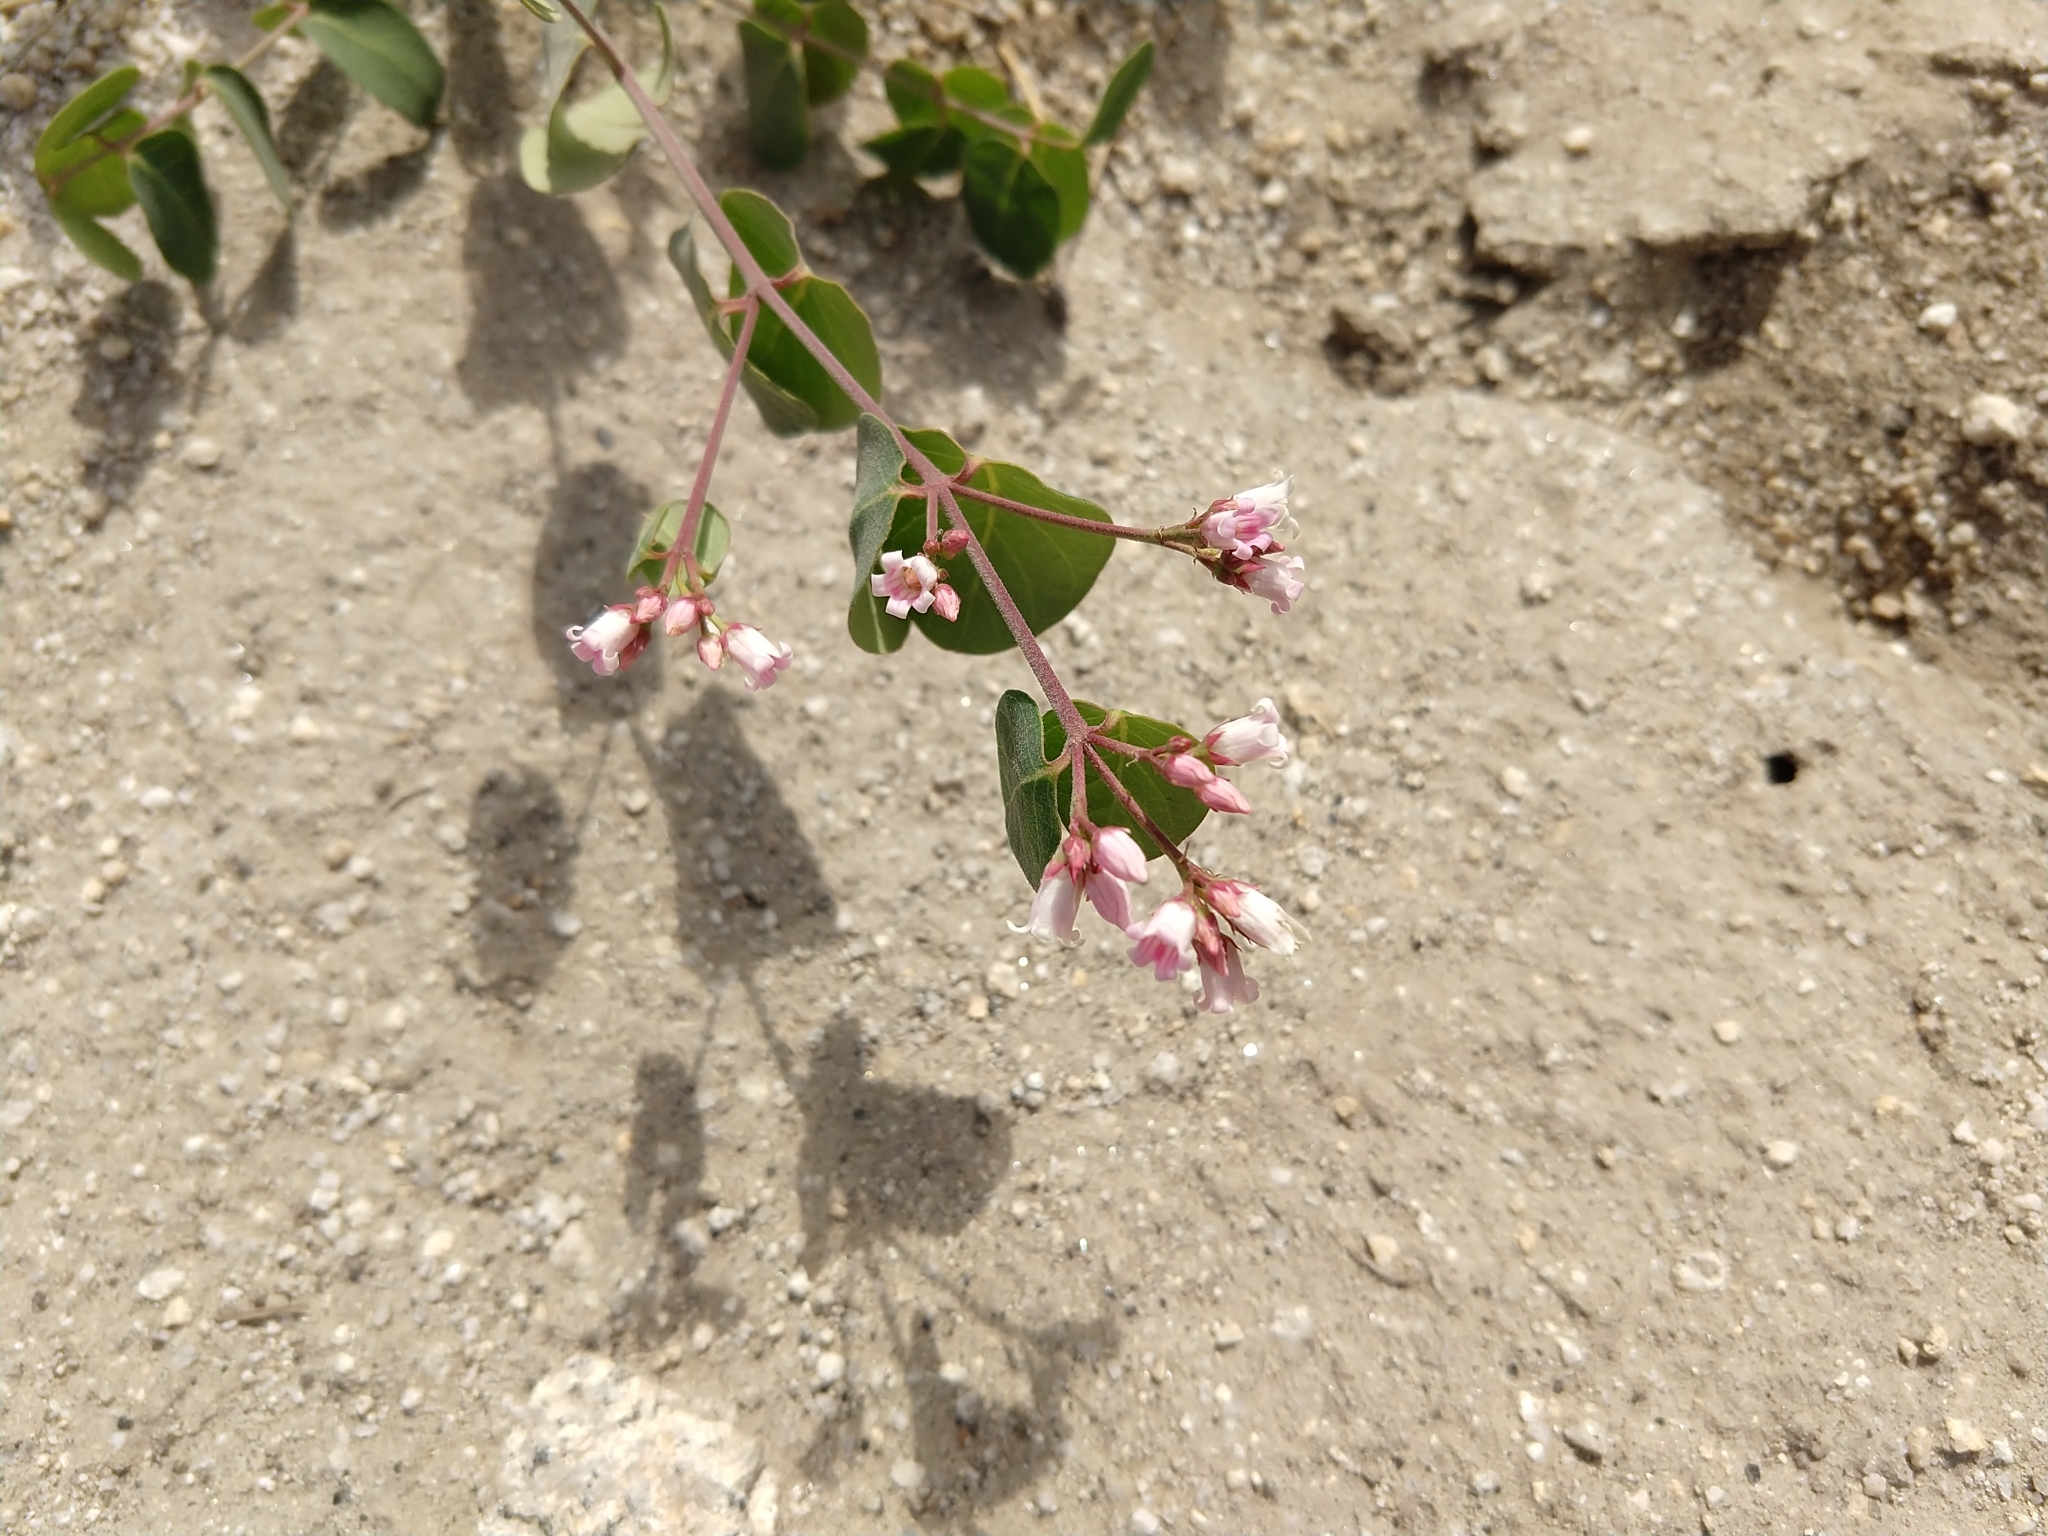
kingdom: Plantae
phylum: Tracheophyta
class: Magnoliopsida
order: Gentianales
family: Apocynaceae
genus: Apocynum
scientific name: Apocynum androsaemifolium
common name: Spreading dogbane
